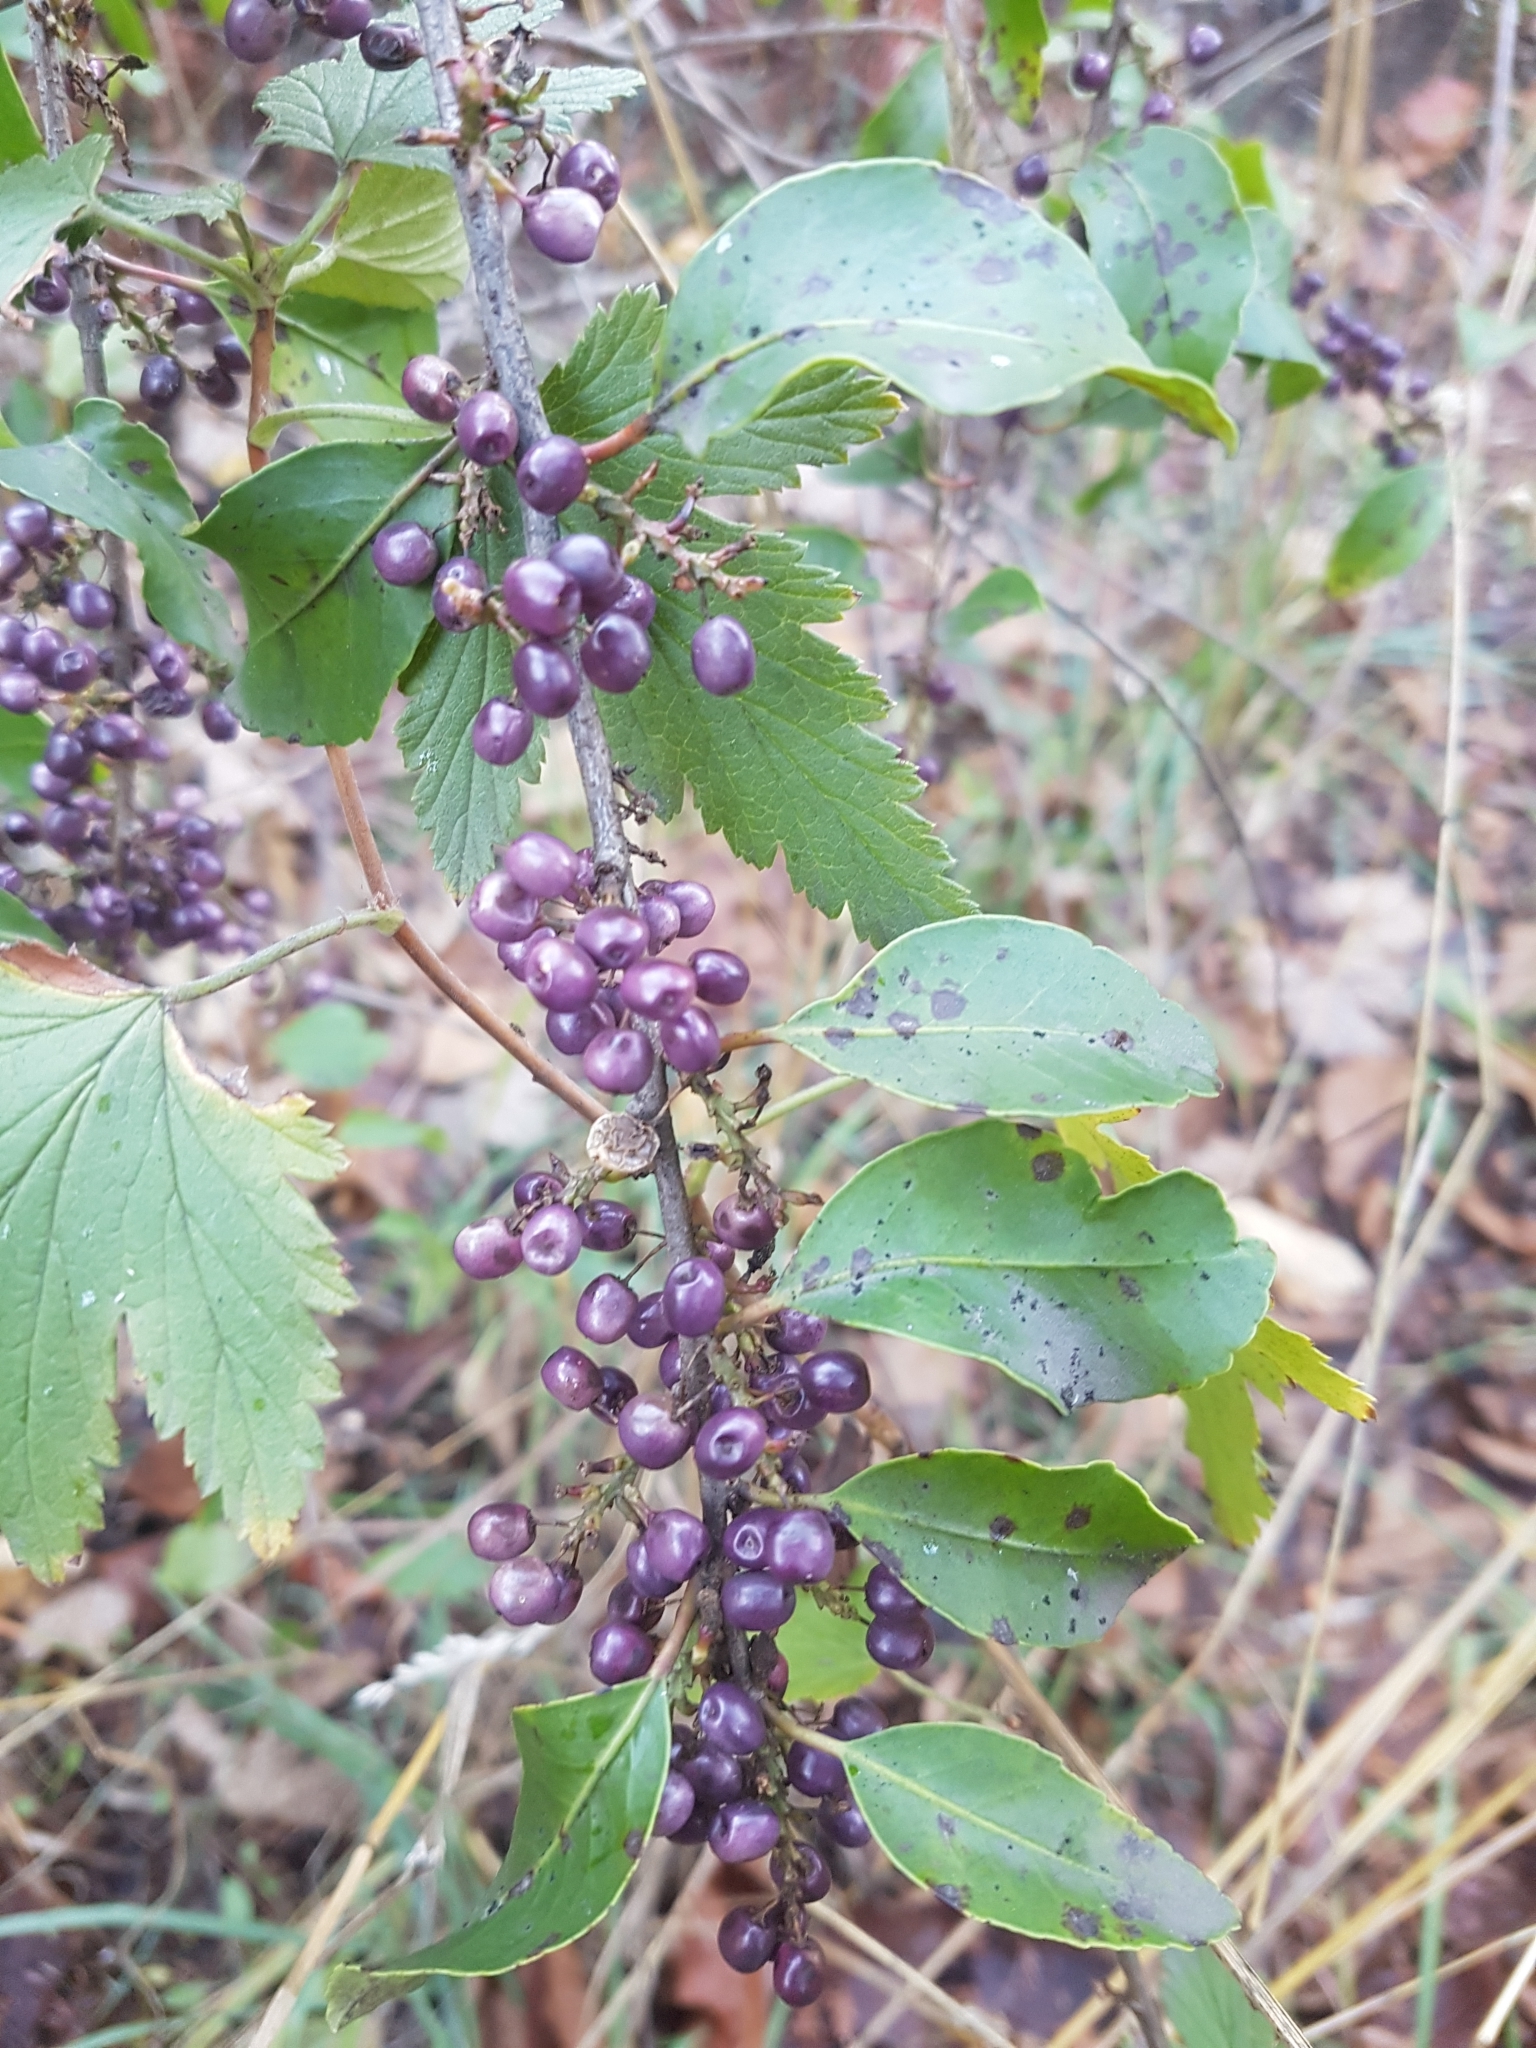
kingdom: Plantae
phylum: Tracheophyta
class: Magnoliopsida
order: Sapindales
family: Anacardiaceae
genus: Schinus
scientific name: Schinus patagonica
